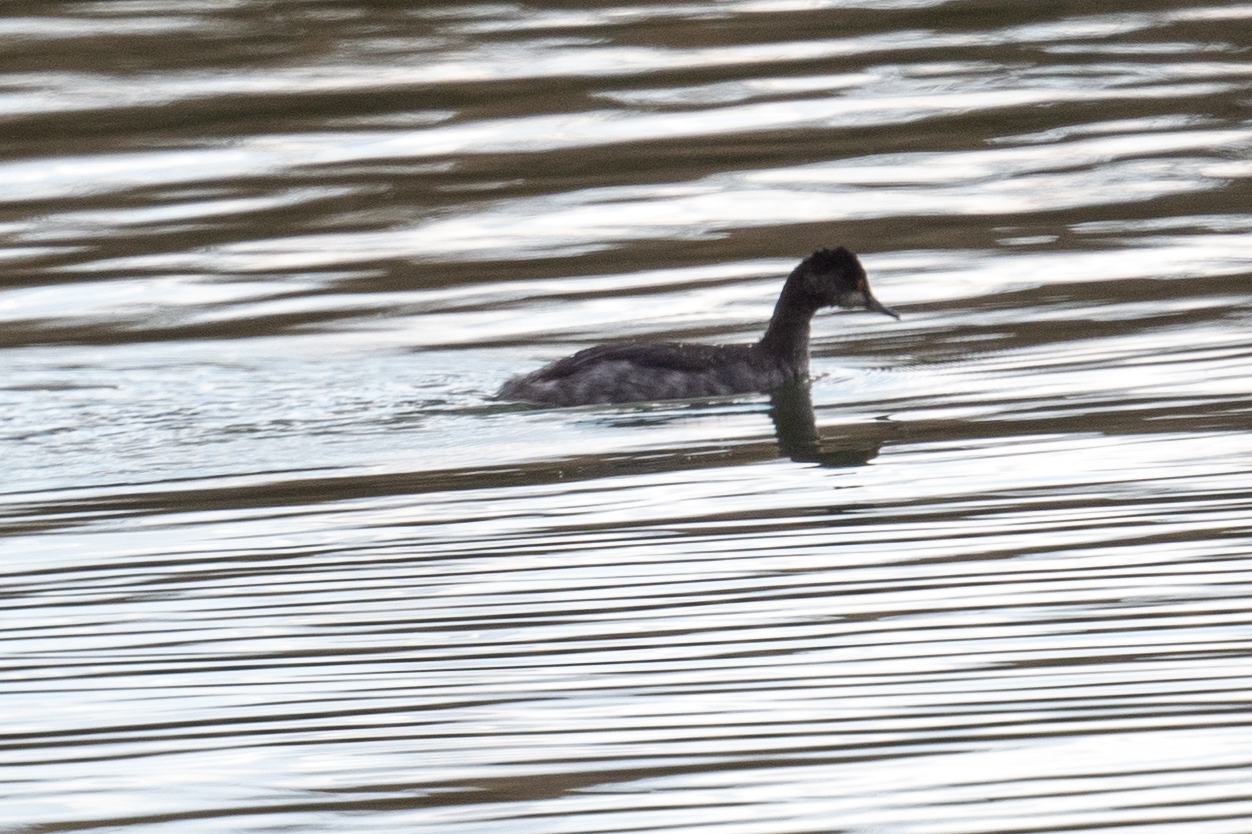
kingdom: Animalia
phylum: Chordata
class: Aves
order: Podicipediformes
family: Podicipedidae
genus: Podiceps
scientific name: Podiceps nigricollis
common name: Black-necked grebe
